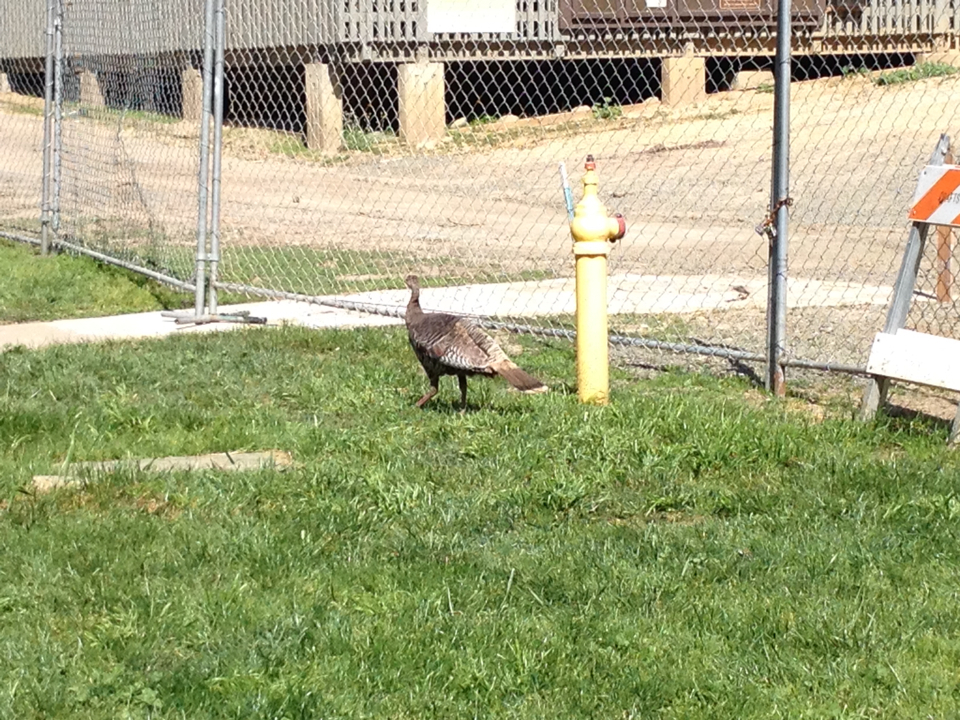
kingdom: Animalia
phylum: Chordata
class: Aves
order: Galliformes
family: Phasianidae
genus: Meleagris
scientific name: Meleagris gallopavo
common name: Wild turkey
